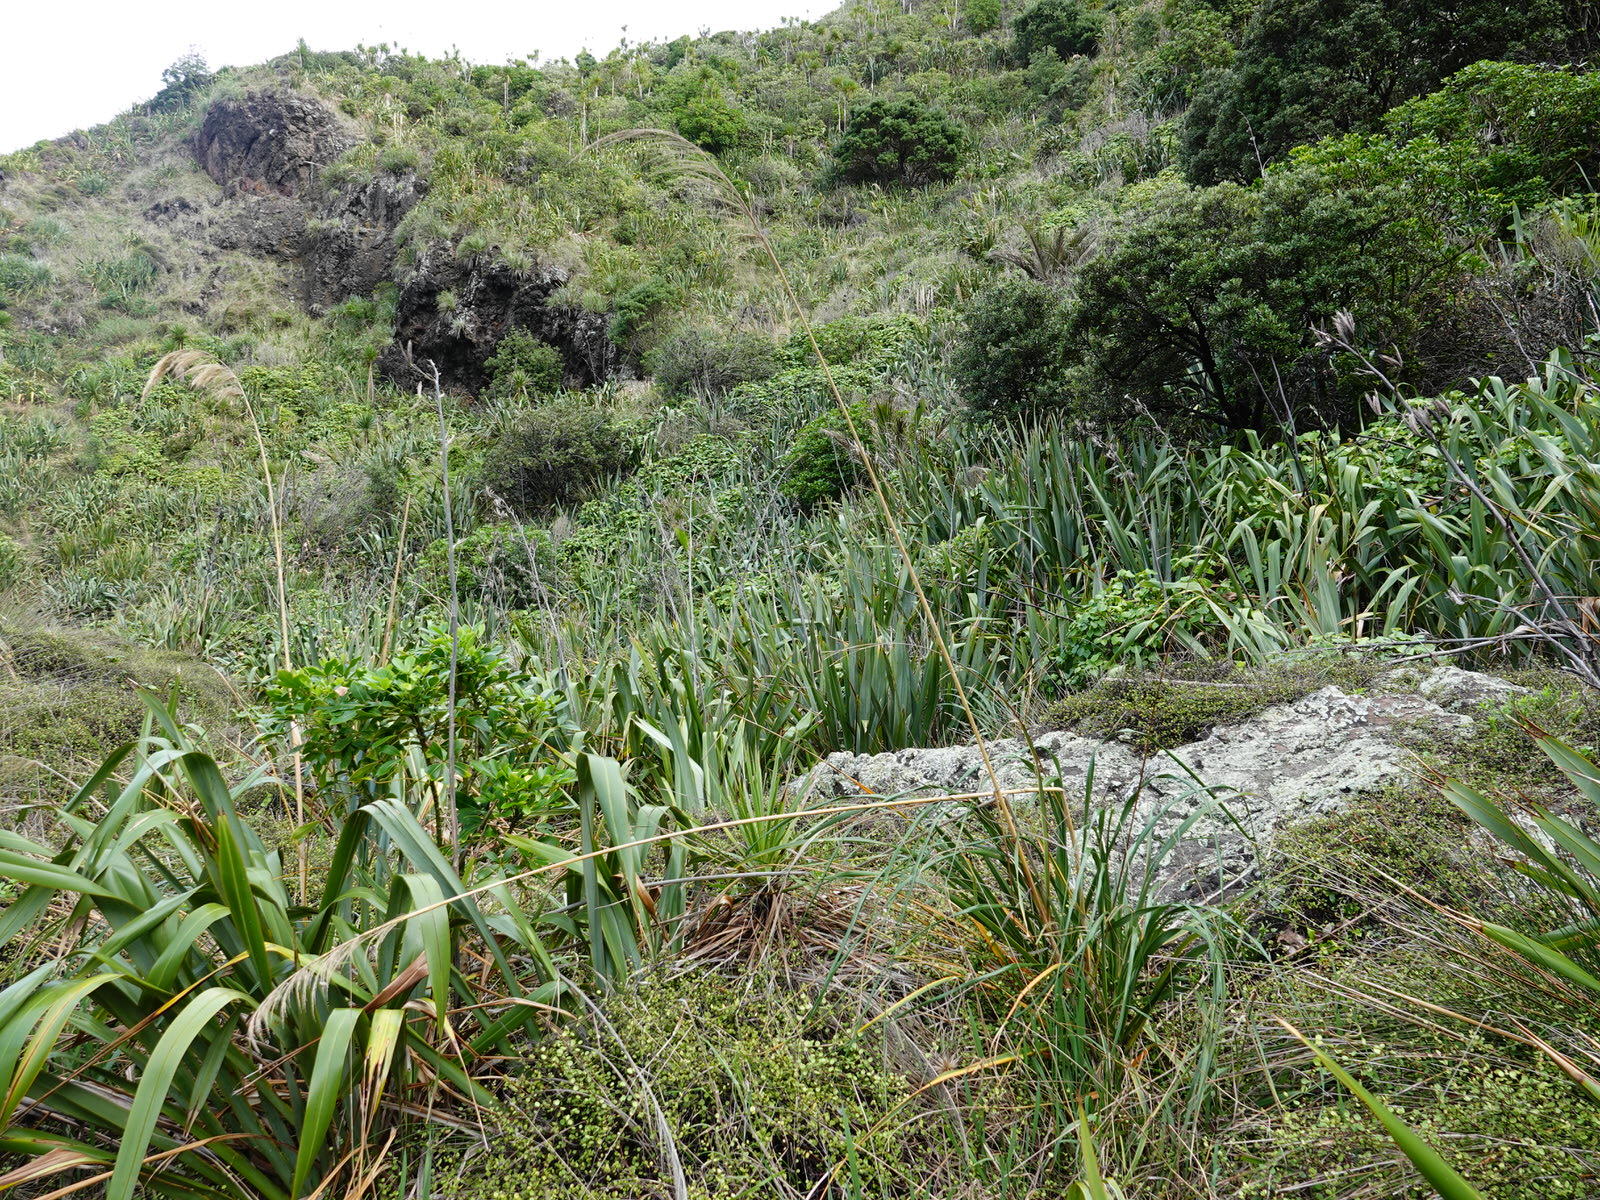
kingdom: Plantae
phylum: Tracheophyta
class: Liliopsida
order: Poales
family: Poaceae
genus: Austroderia
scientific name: Austroderia splendens
